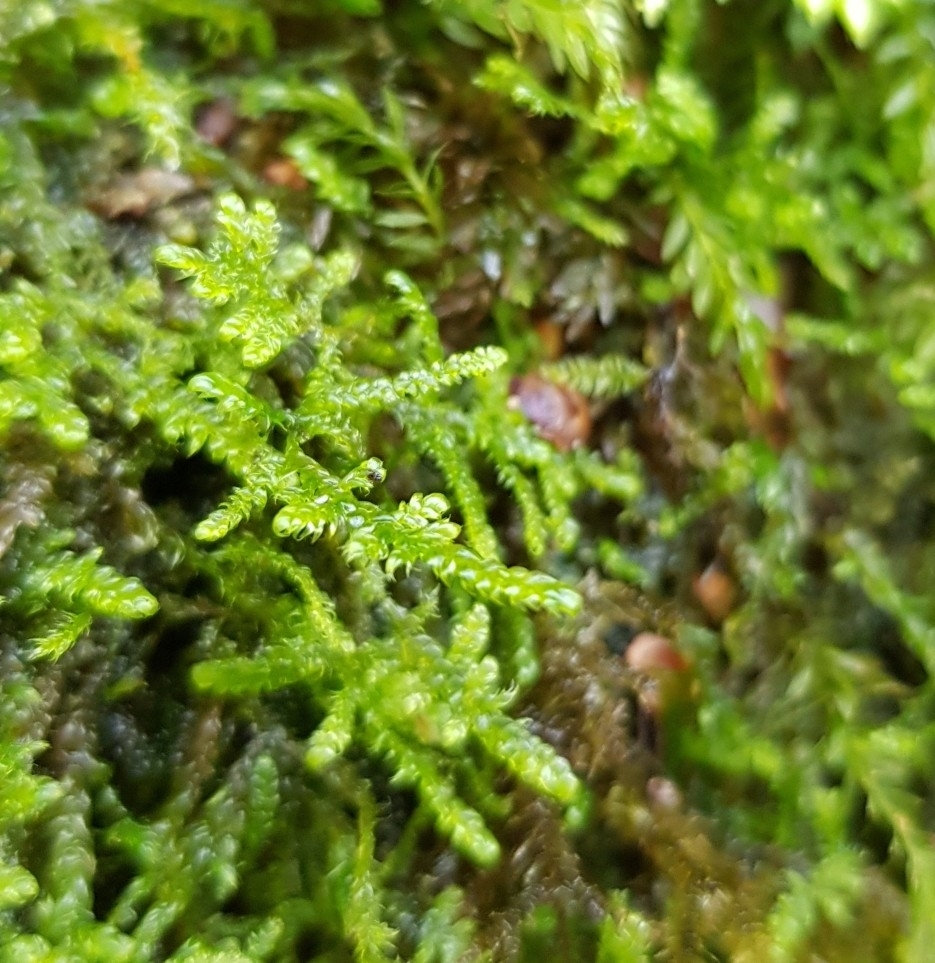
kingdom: Plantae
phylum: Bryophyta
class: Bryopsida
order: Hypnales
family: Hypnaceae
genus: Hypnum
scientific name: Hypnum cupressiforme
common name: Cypress-leaved plait-moss
